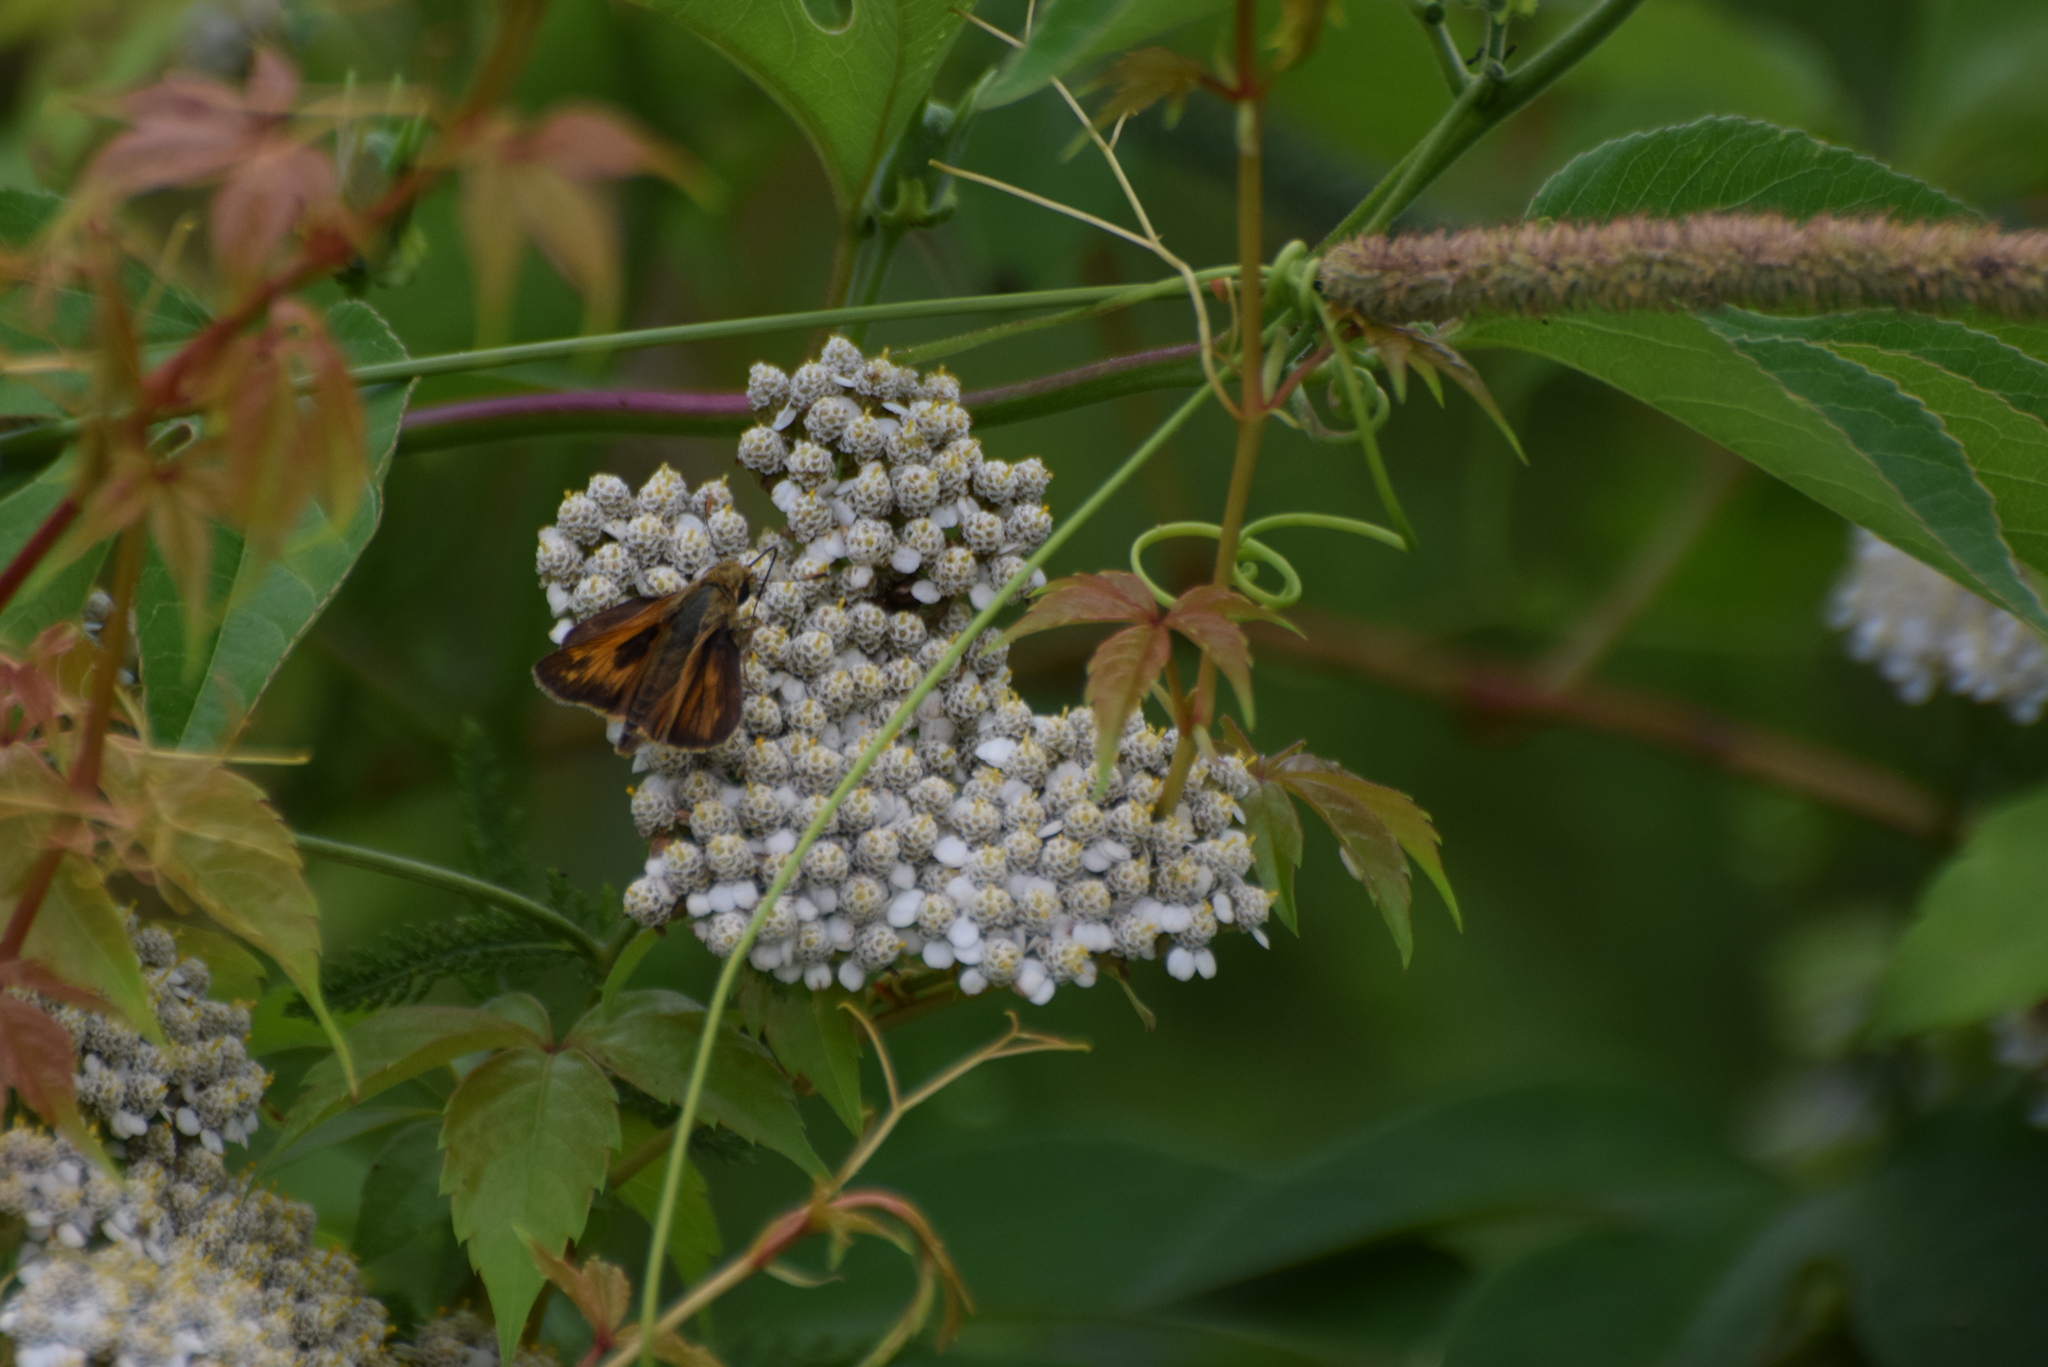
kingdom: Animalia
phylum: Arthropoda
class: Insecta
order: Lepidoptera
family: Hesperiidae
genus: Atalopedes
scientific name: Atalopedes
